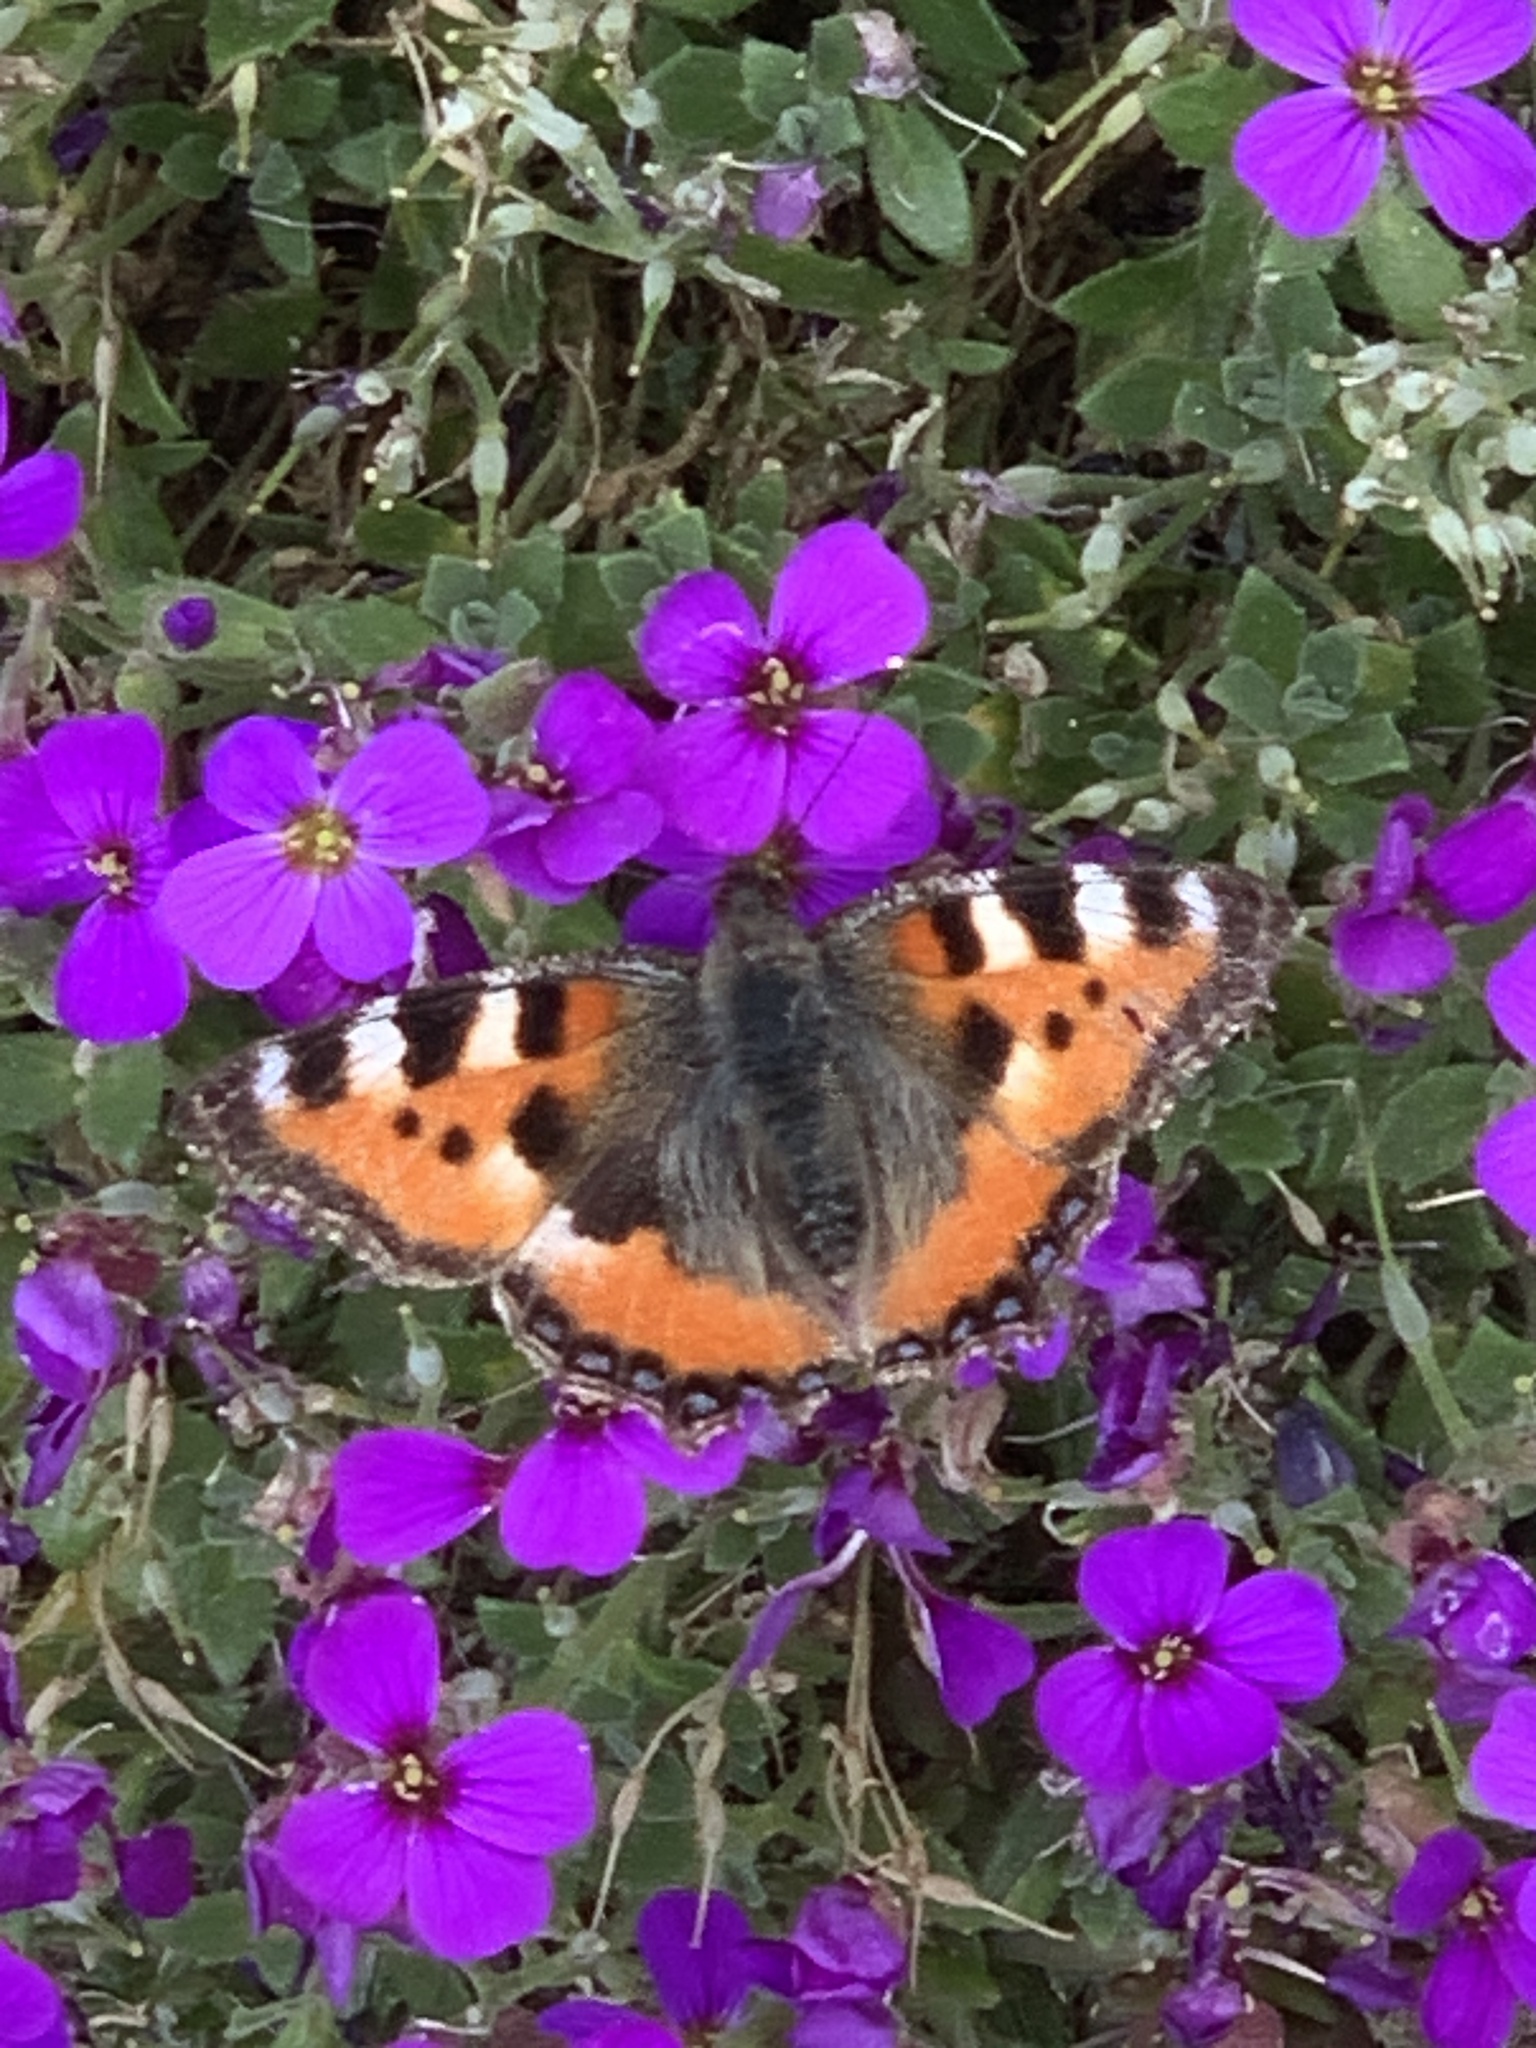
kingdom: Animalia
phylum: Arthropoda
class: Insecta
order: Lepidoptera
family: Nymphalidae
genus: Aglais
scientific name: Aglais urticae
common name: Small tortoiseshell
